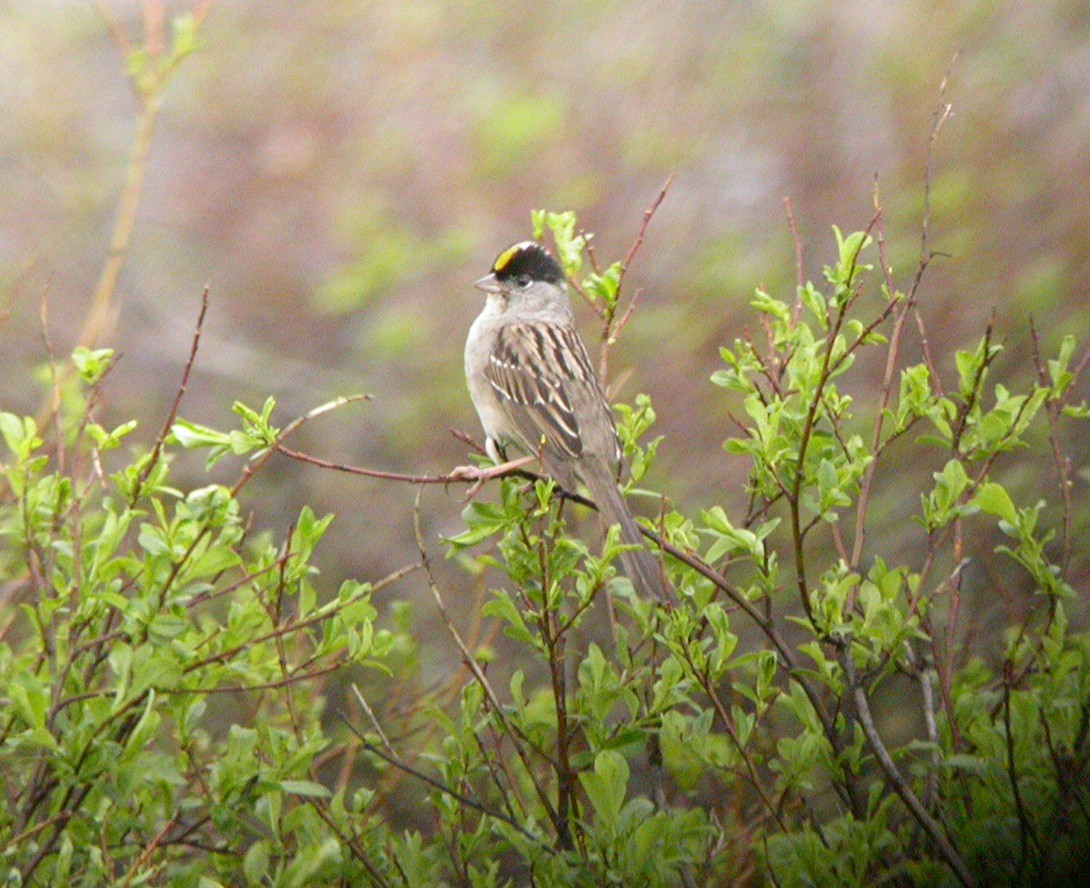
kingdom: Animalia
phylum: Chordata
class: Aves
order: Passeriformes
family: Passerellidae
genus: Zonotrichia
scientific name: Zonotrichia atricapilla
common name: Golden-crowned sparrow
